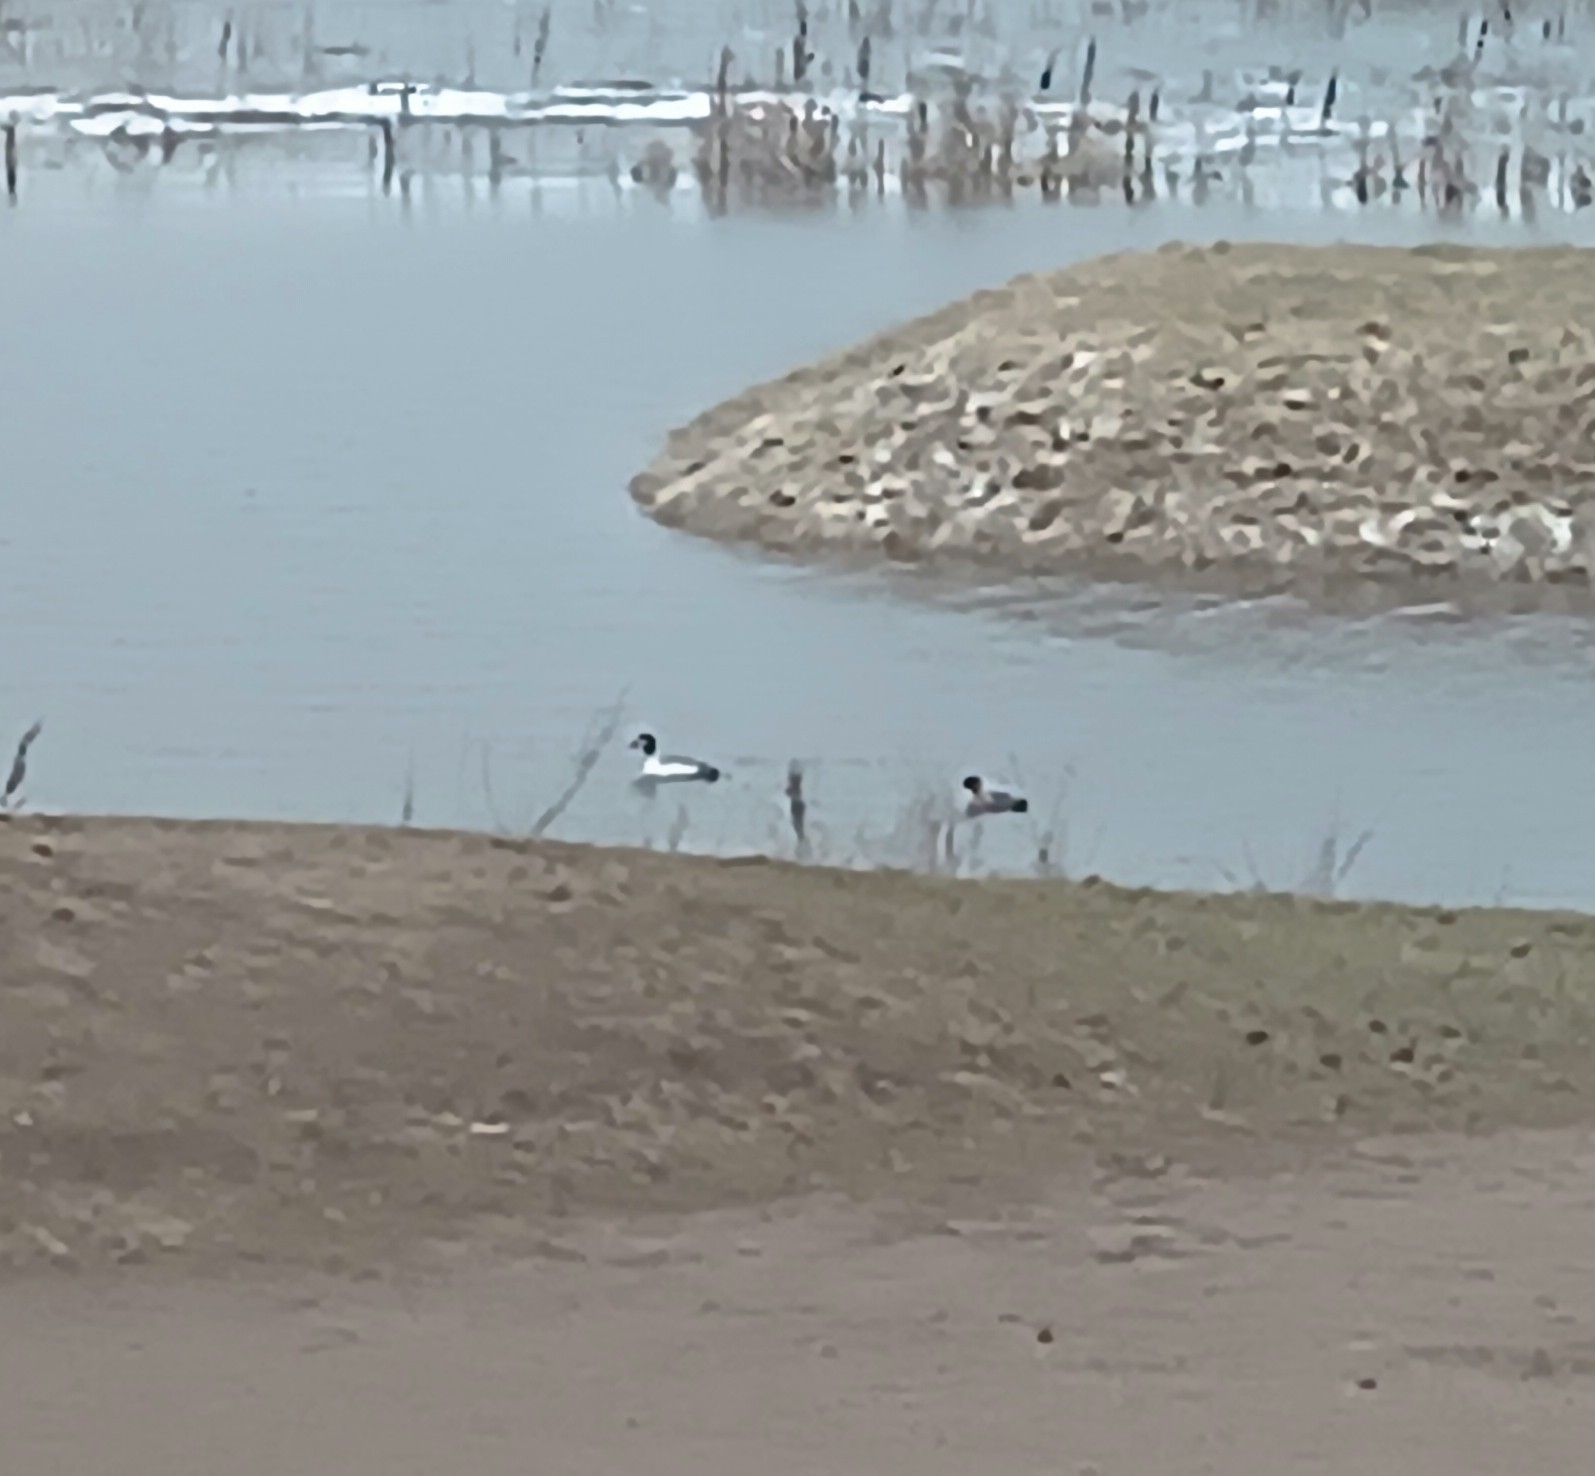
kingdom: Animalia
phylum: Chordata
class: Aves
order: Anseriformes
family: Anatidae
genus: Bucephala
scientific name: Bucephala clangula
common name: Common goldeneye
